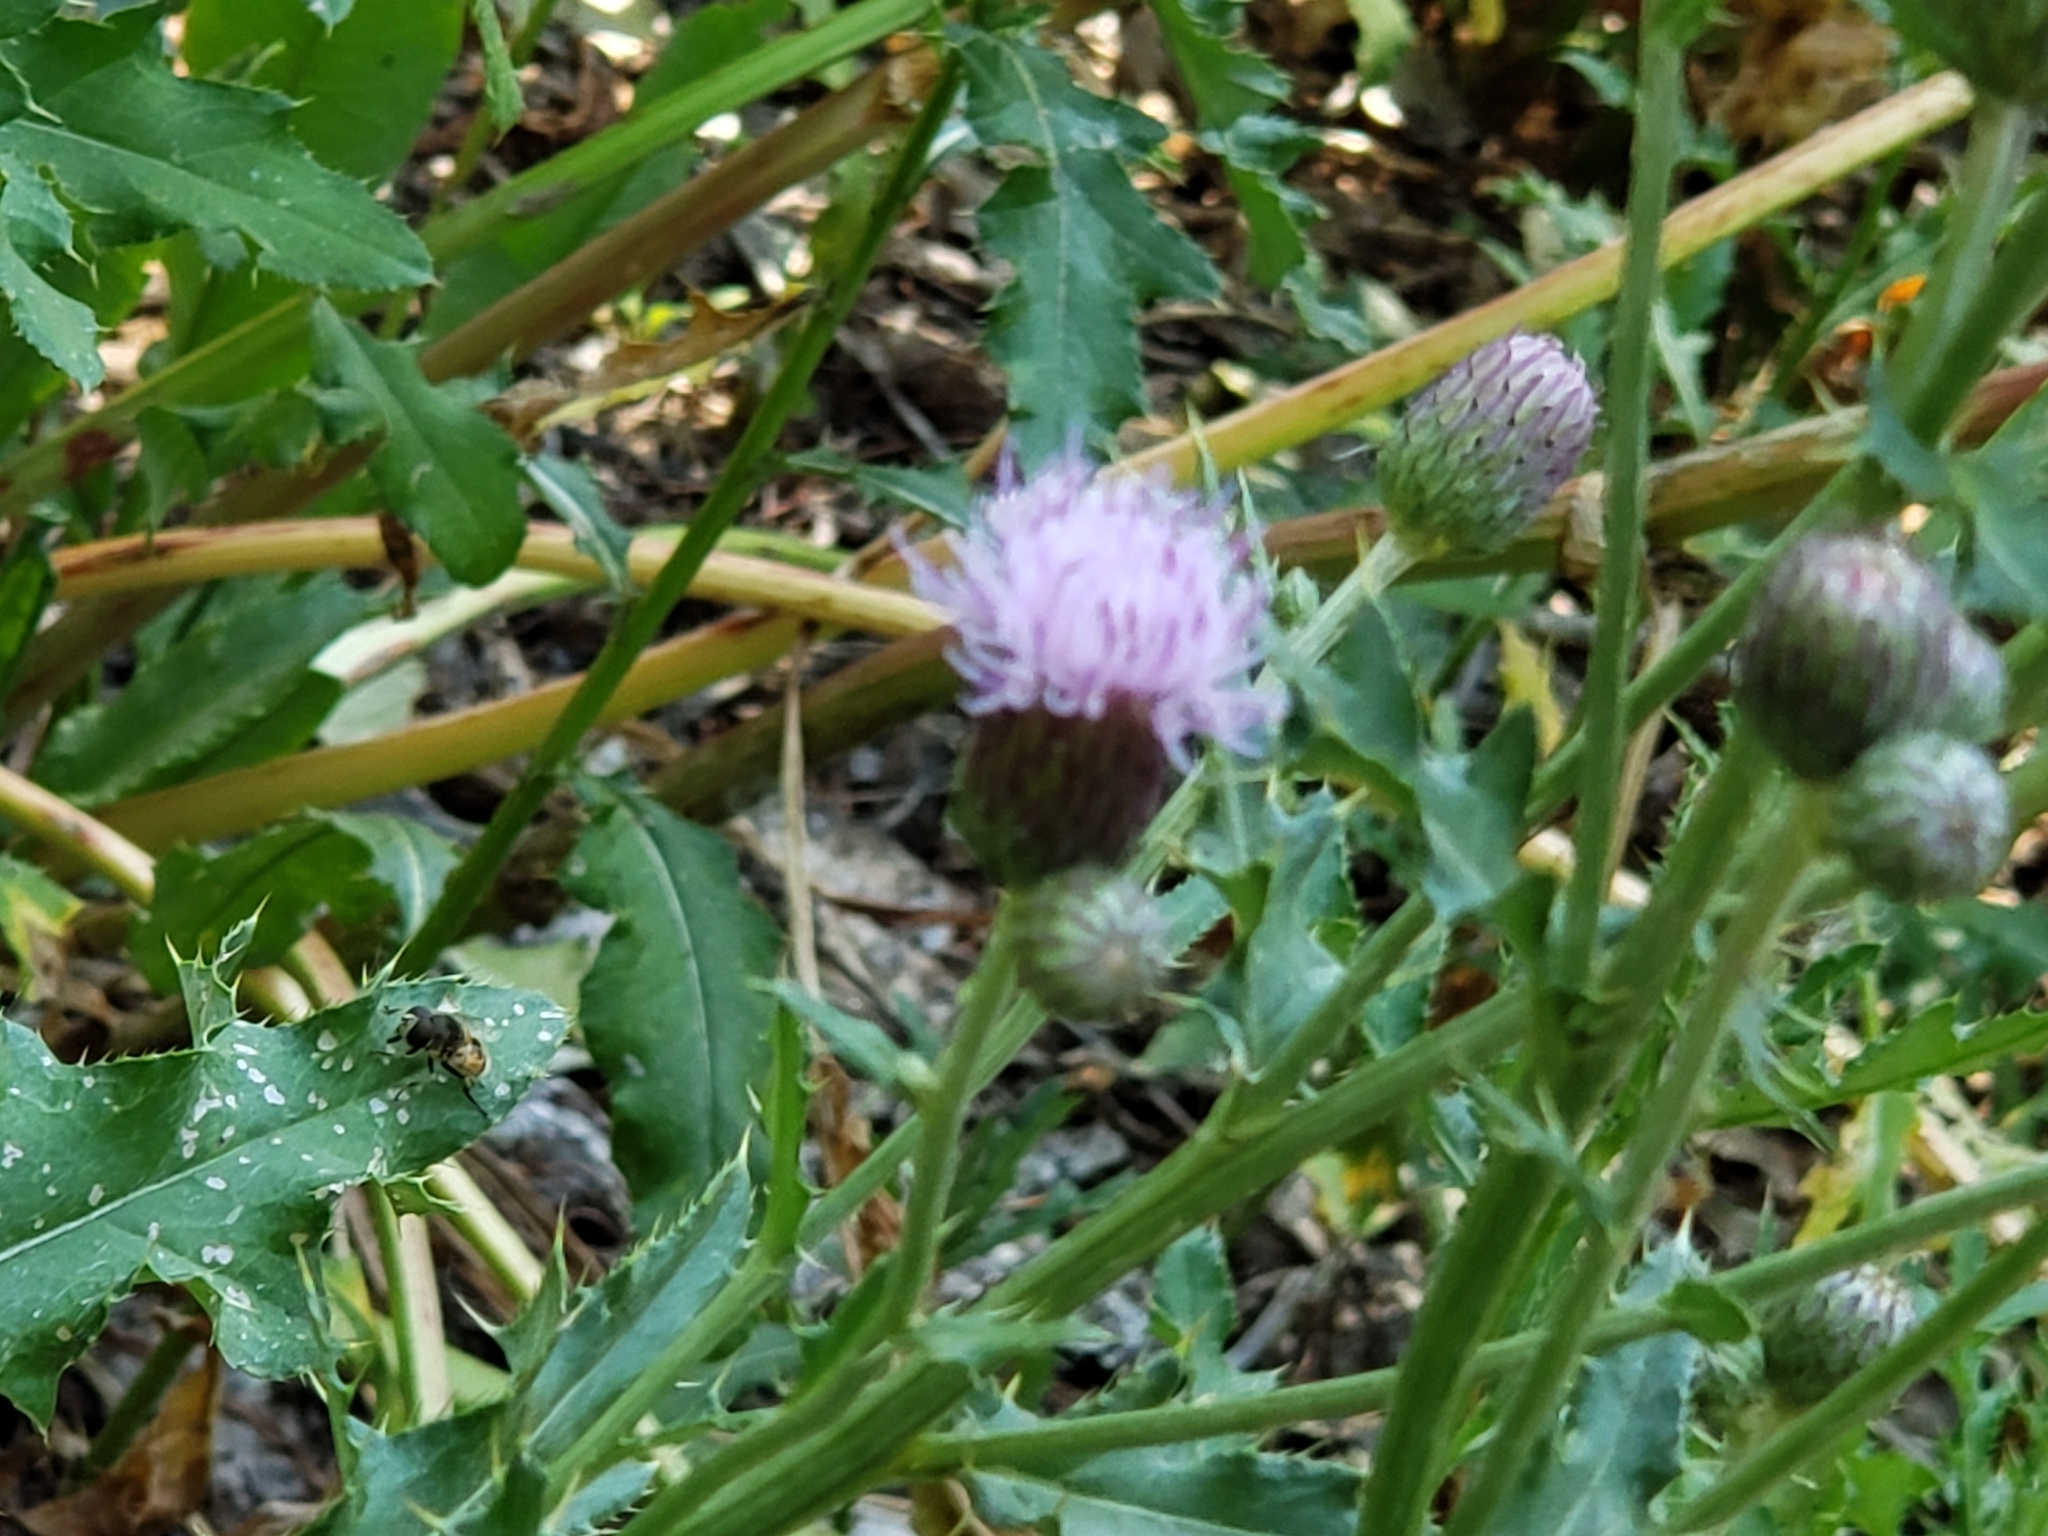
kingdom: Plantae
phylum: Tracheophyta
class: Magnoliopsida
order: Asterales
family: Asteraceae
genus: Cirsium
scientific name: Cirsium arvense
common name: Creeping thistle
